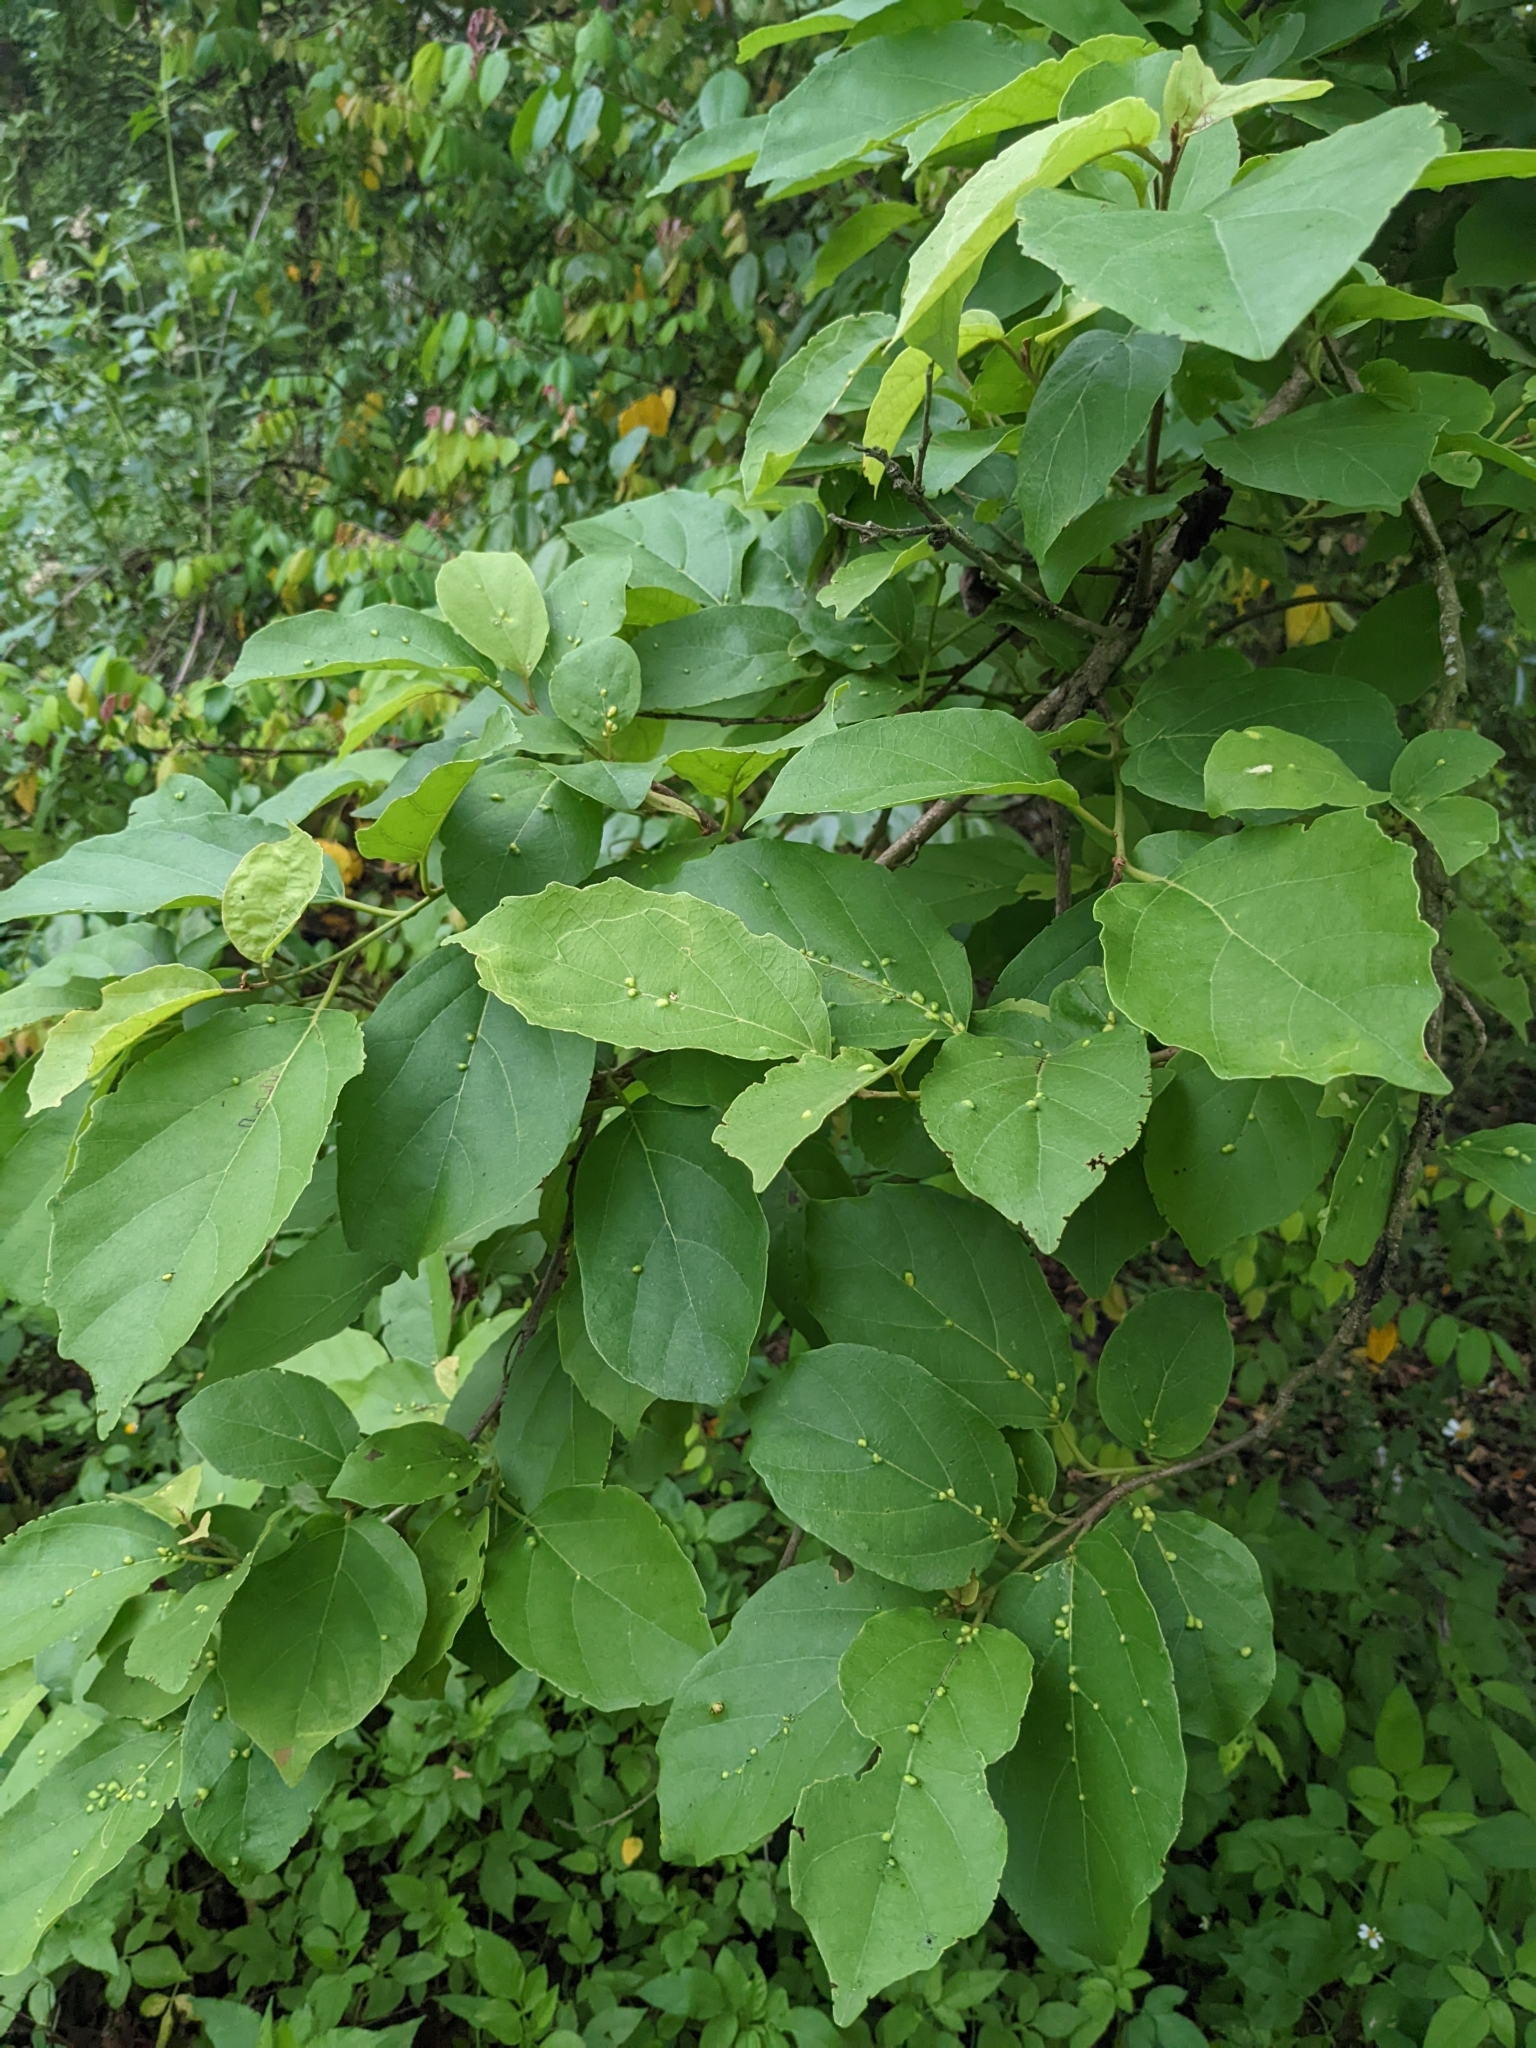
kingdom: Plantae
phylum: Tracheophyta
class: Magnoliopsida
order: Boraginales
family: Cordiaceae
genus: Cordia
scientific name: Cordia dichotoma
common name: Fragrant manjack
